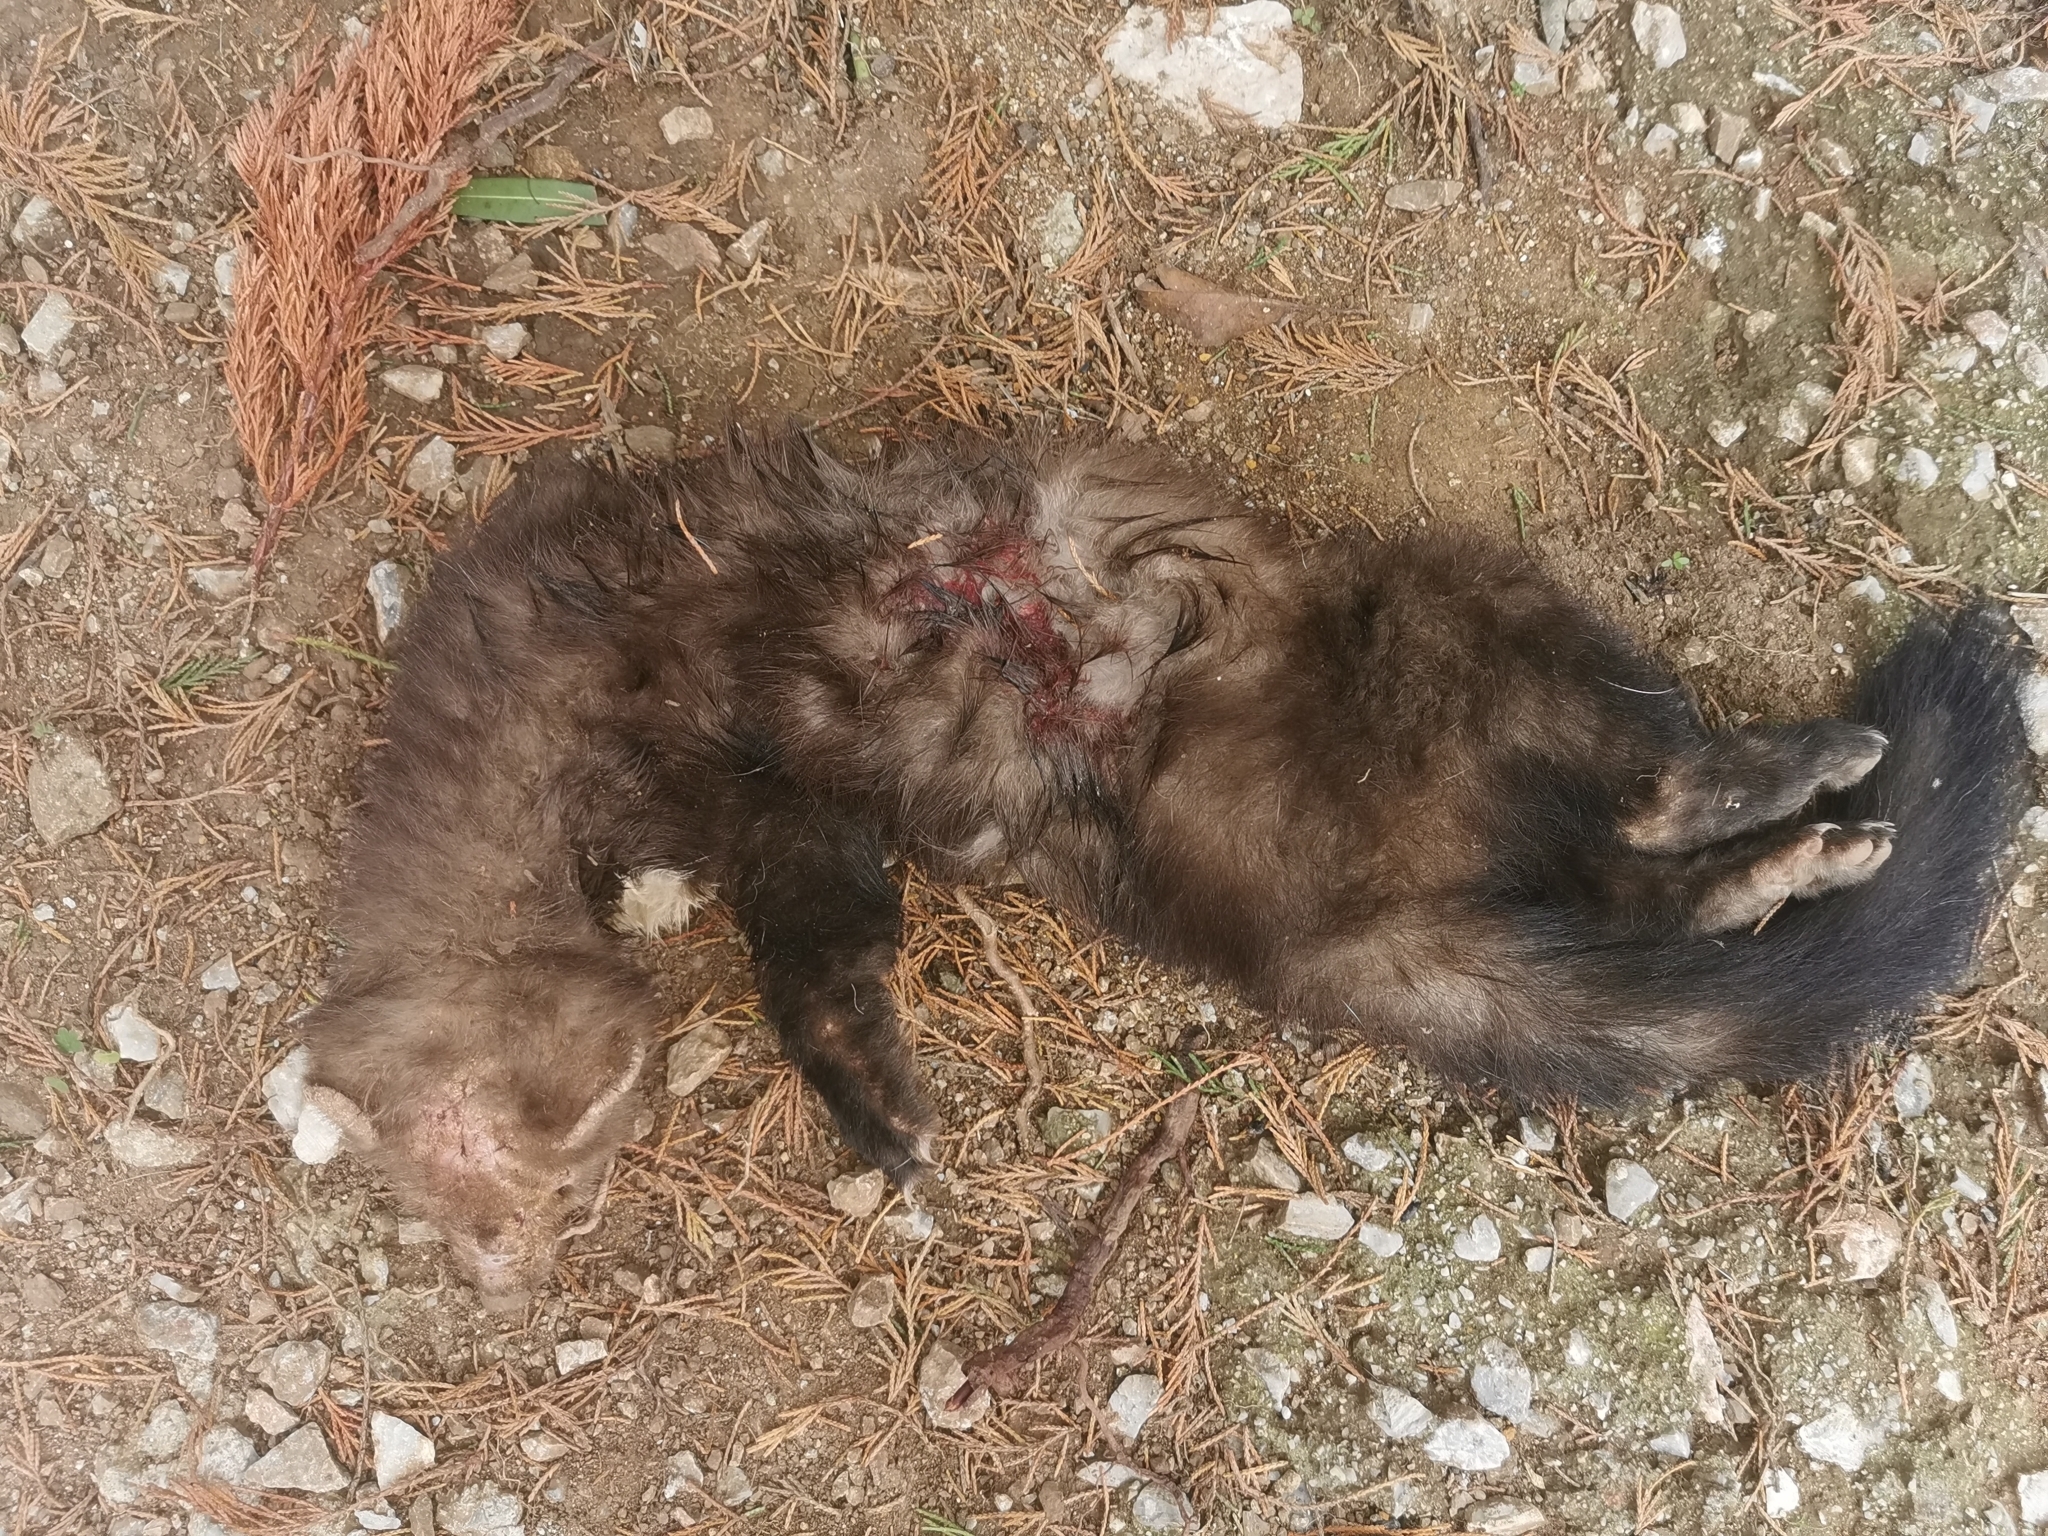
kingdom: Animalia
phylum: Chordata
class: Mammalia
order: Carnivora
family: Mustelidae
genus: Martes
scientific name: Martes foina
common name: Beech marten
